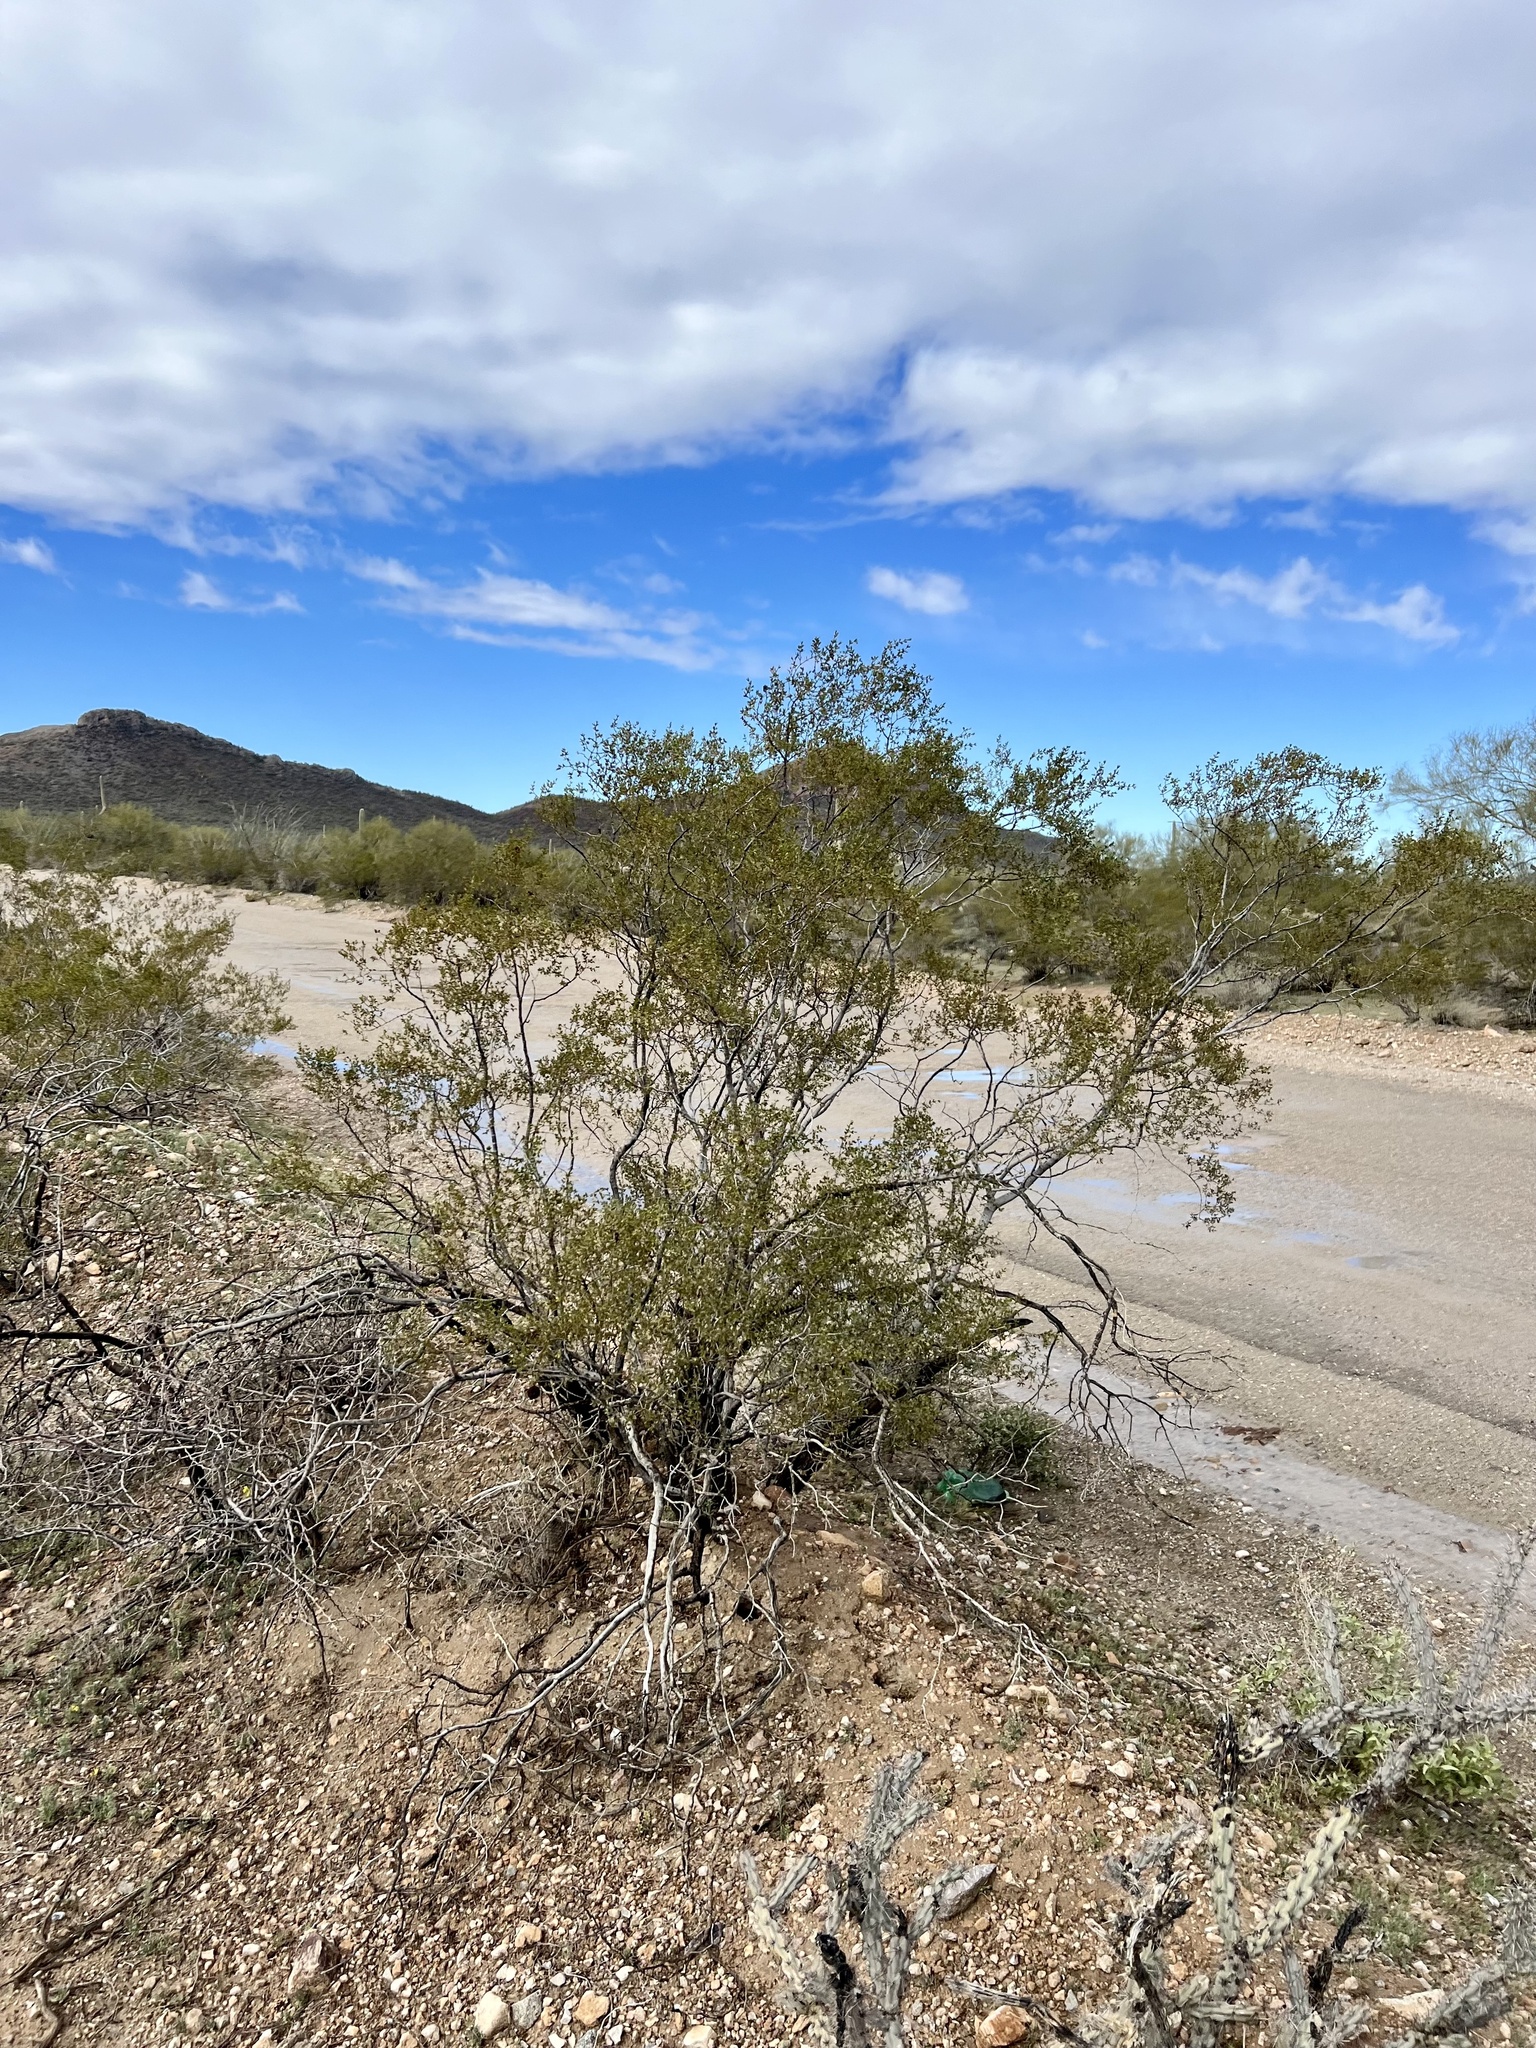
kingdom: Plantae
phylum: Tracheophyta
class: Magnoliopsida
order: Zygophyllales
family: Zygophyllaceae
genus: Larrea
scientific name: Larrea tridentata
